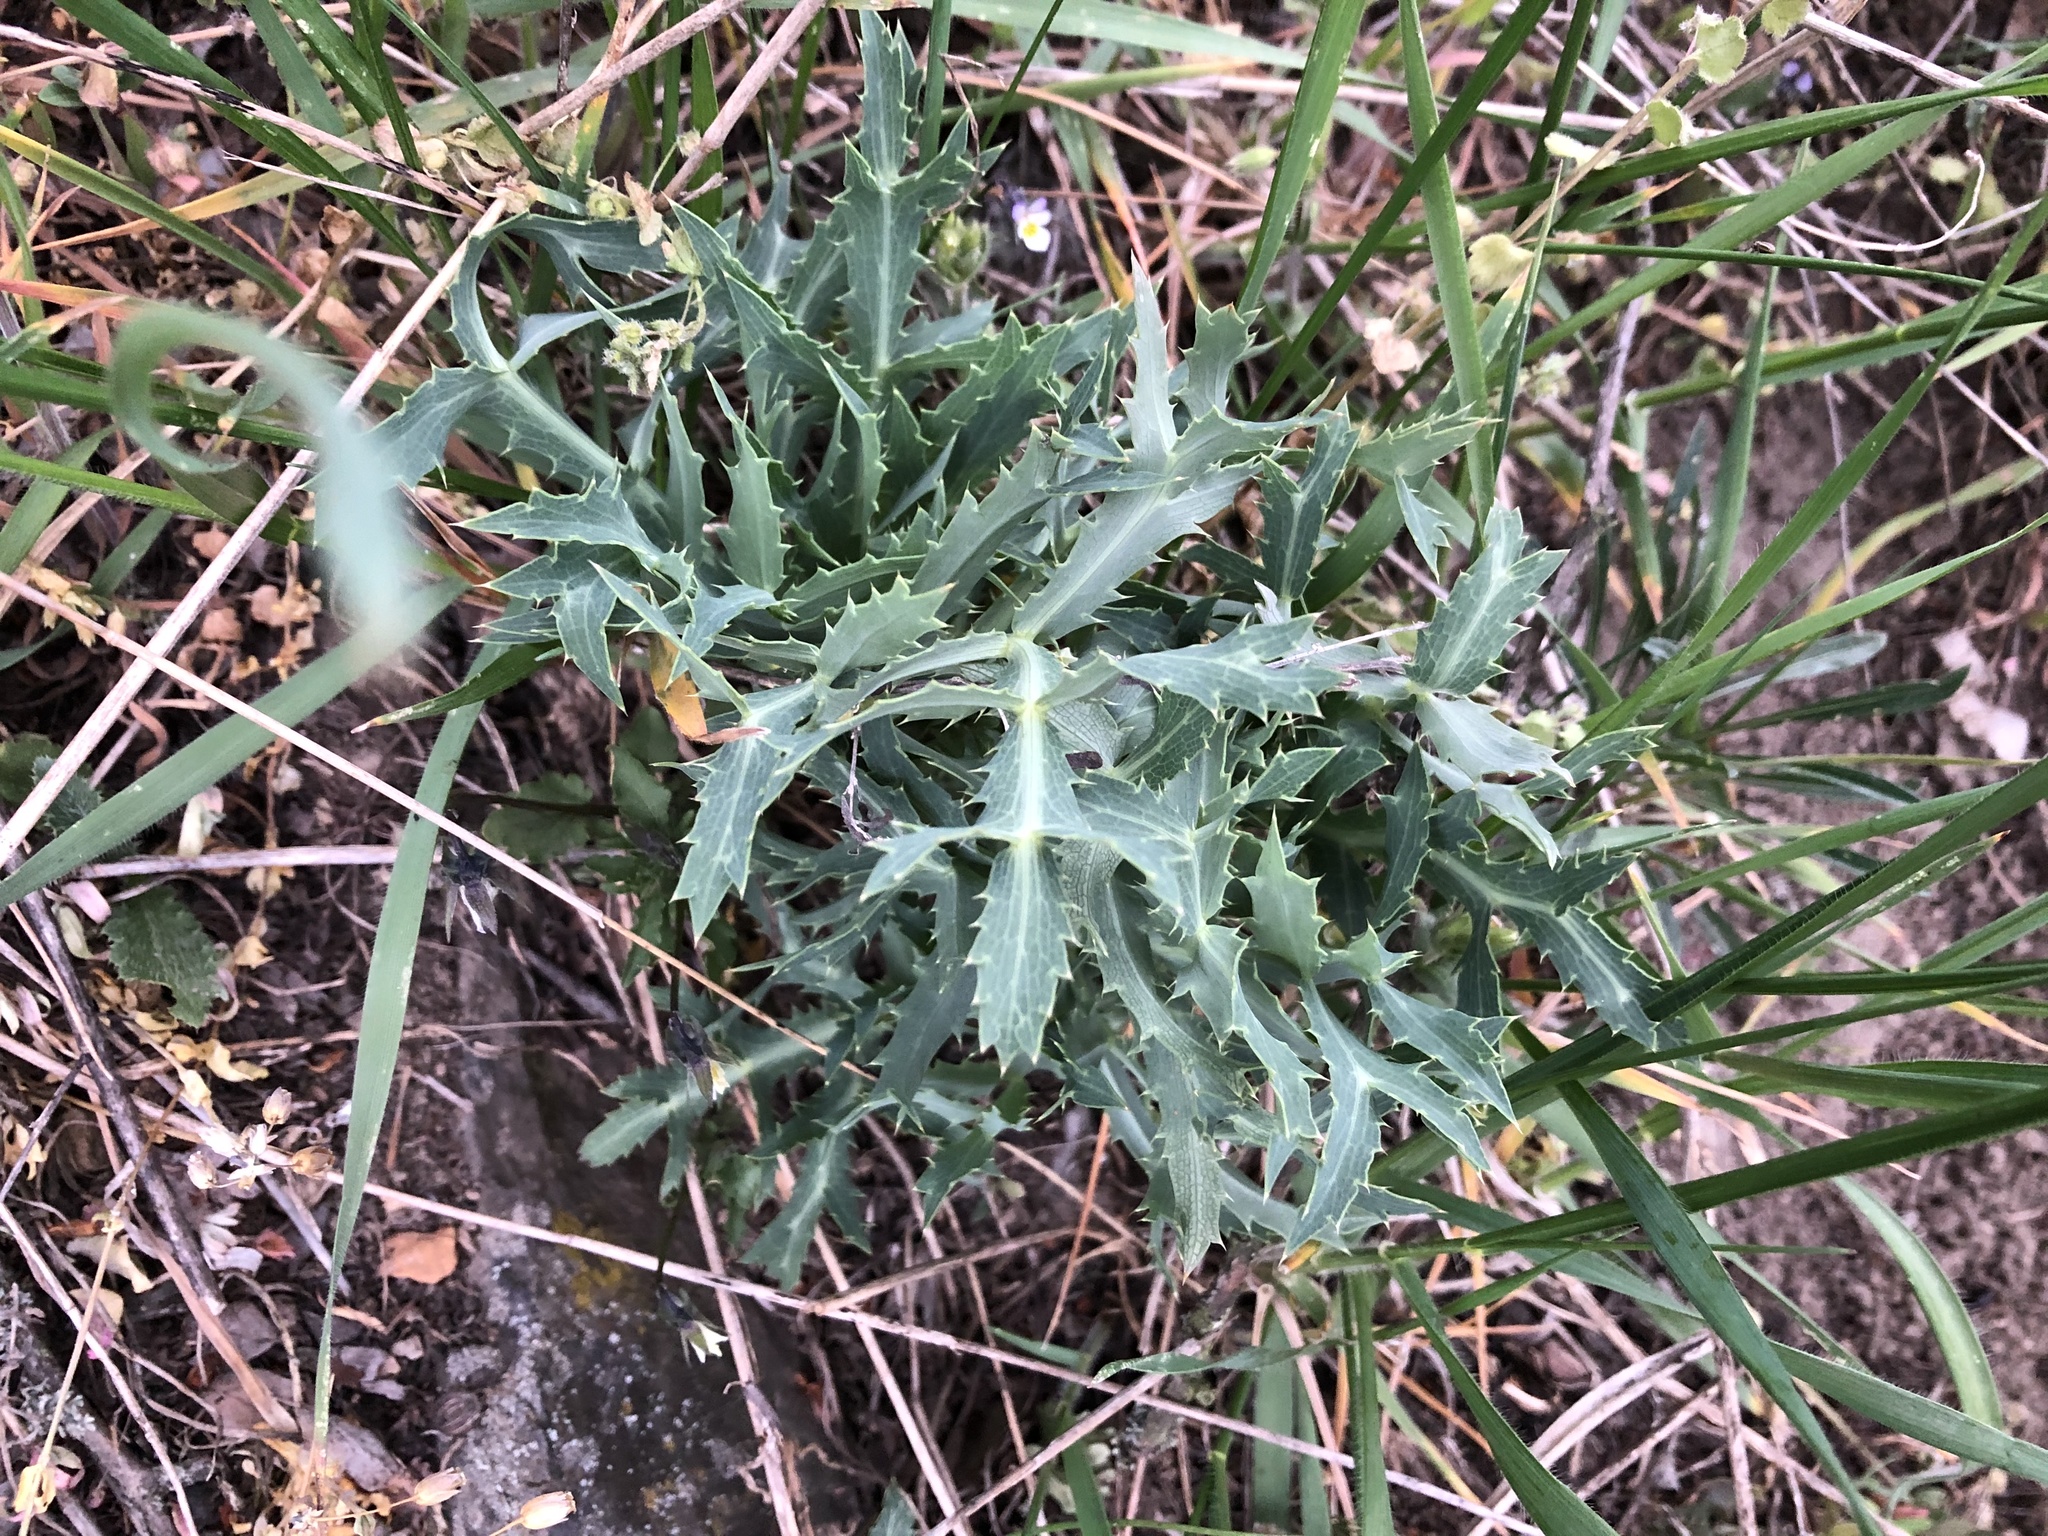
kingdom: Plantae
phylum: Tracheophyta
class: Magnoliopsida
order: Apiales
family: Apiaceae
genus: Eryngium
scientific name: Eryngium campestre
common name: Field eryngo
